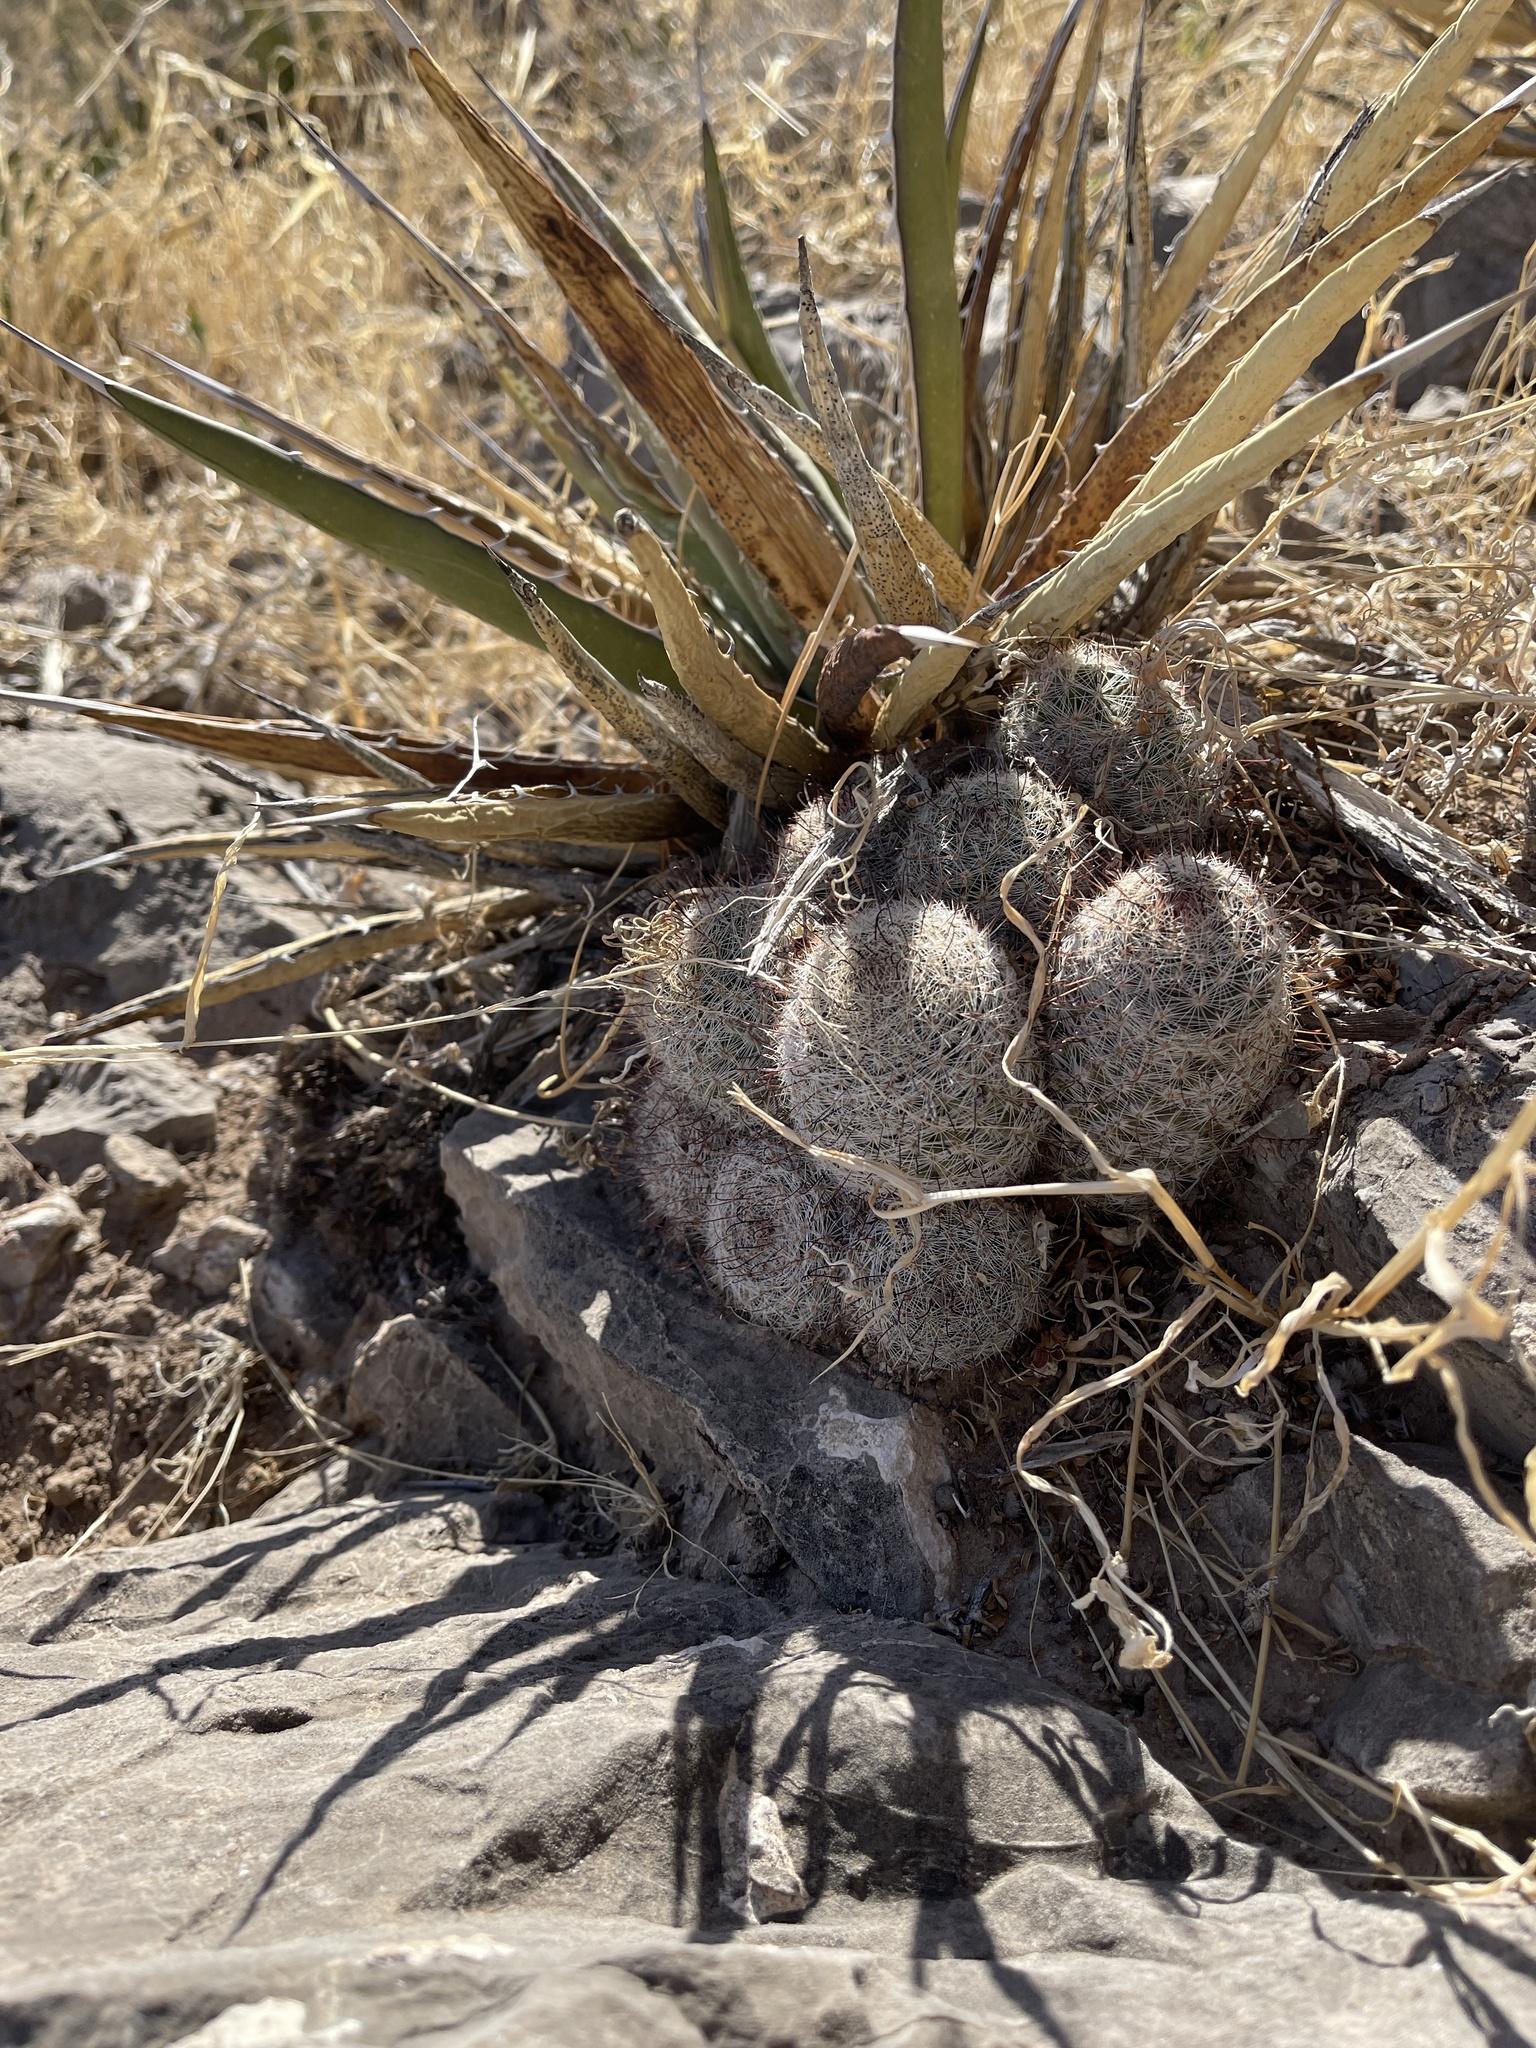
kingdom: Plantae
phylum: Tracheophyta
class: Magnoliopsida
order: Caryophyllales
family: Cactaceae
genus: Cochemiea
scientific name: Cochemiea grahamii
